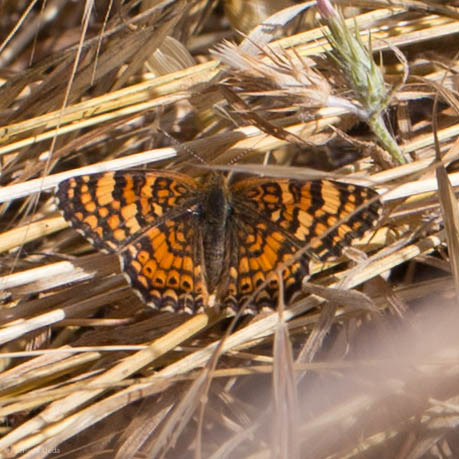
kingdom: Animalia
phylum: Arthropoda
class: Insecta
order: Lepidoptera
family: Nymphalidae
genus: Eresia
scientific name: Eresia aveyrona
